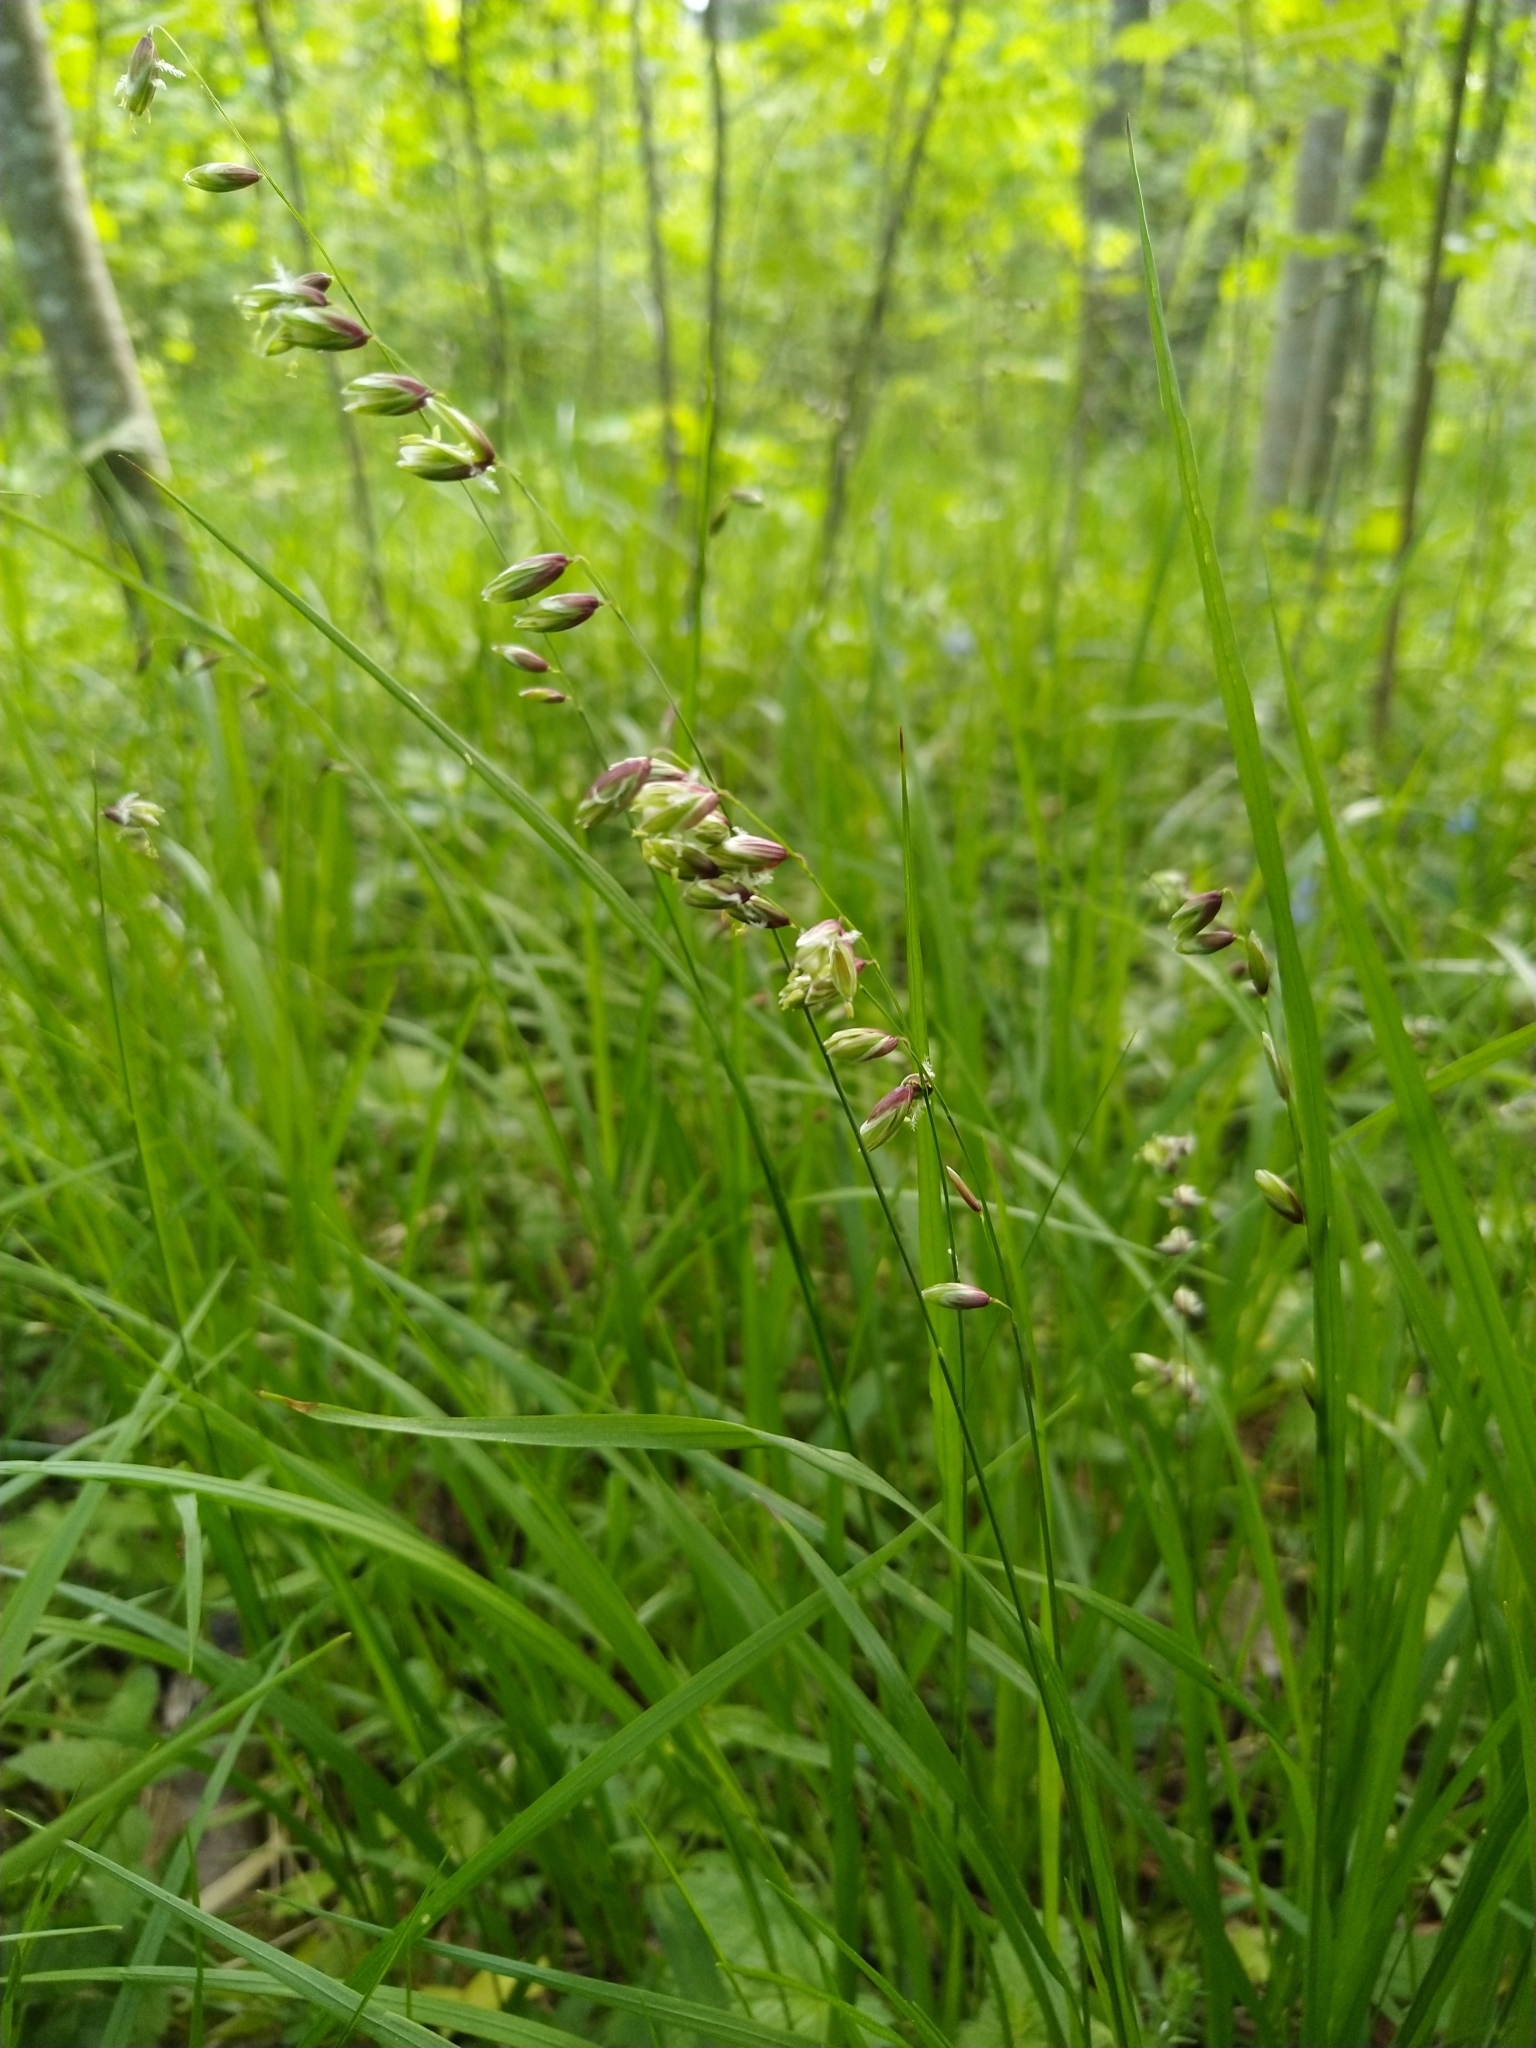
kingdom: Plantae
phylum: Tracheophyta
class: Liliopsida
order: Poales
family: Poaceae
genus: Melica
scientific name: Melica nutans
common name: Mountain melick
